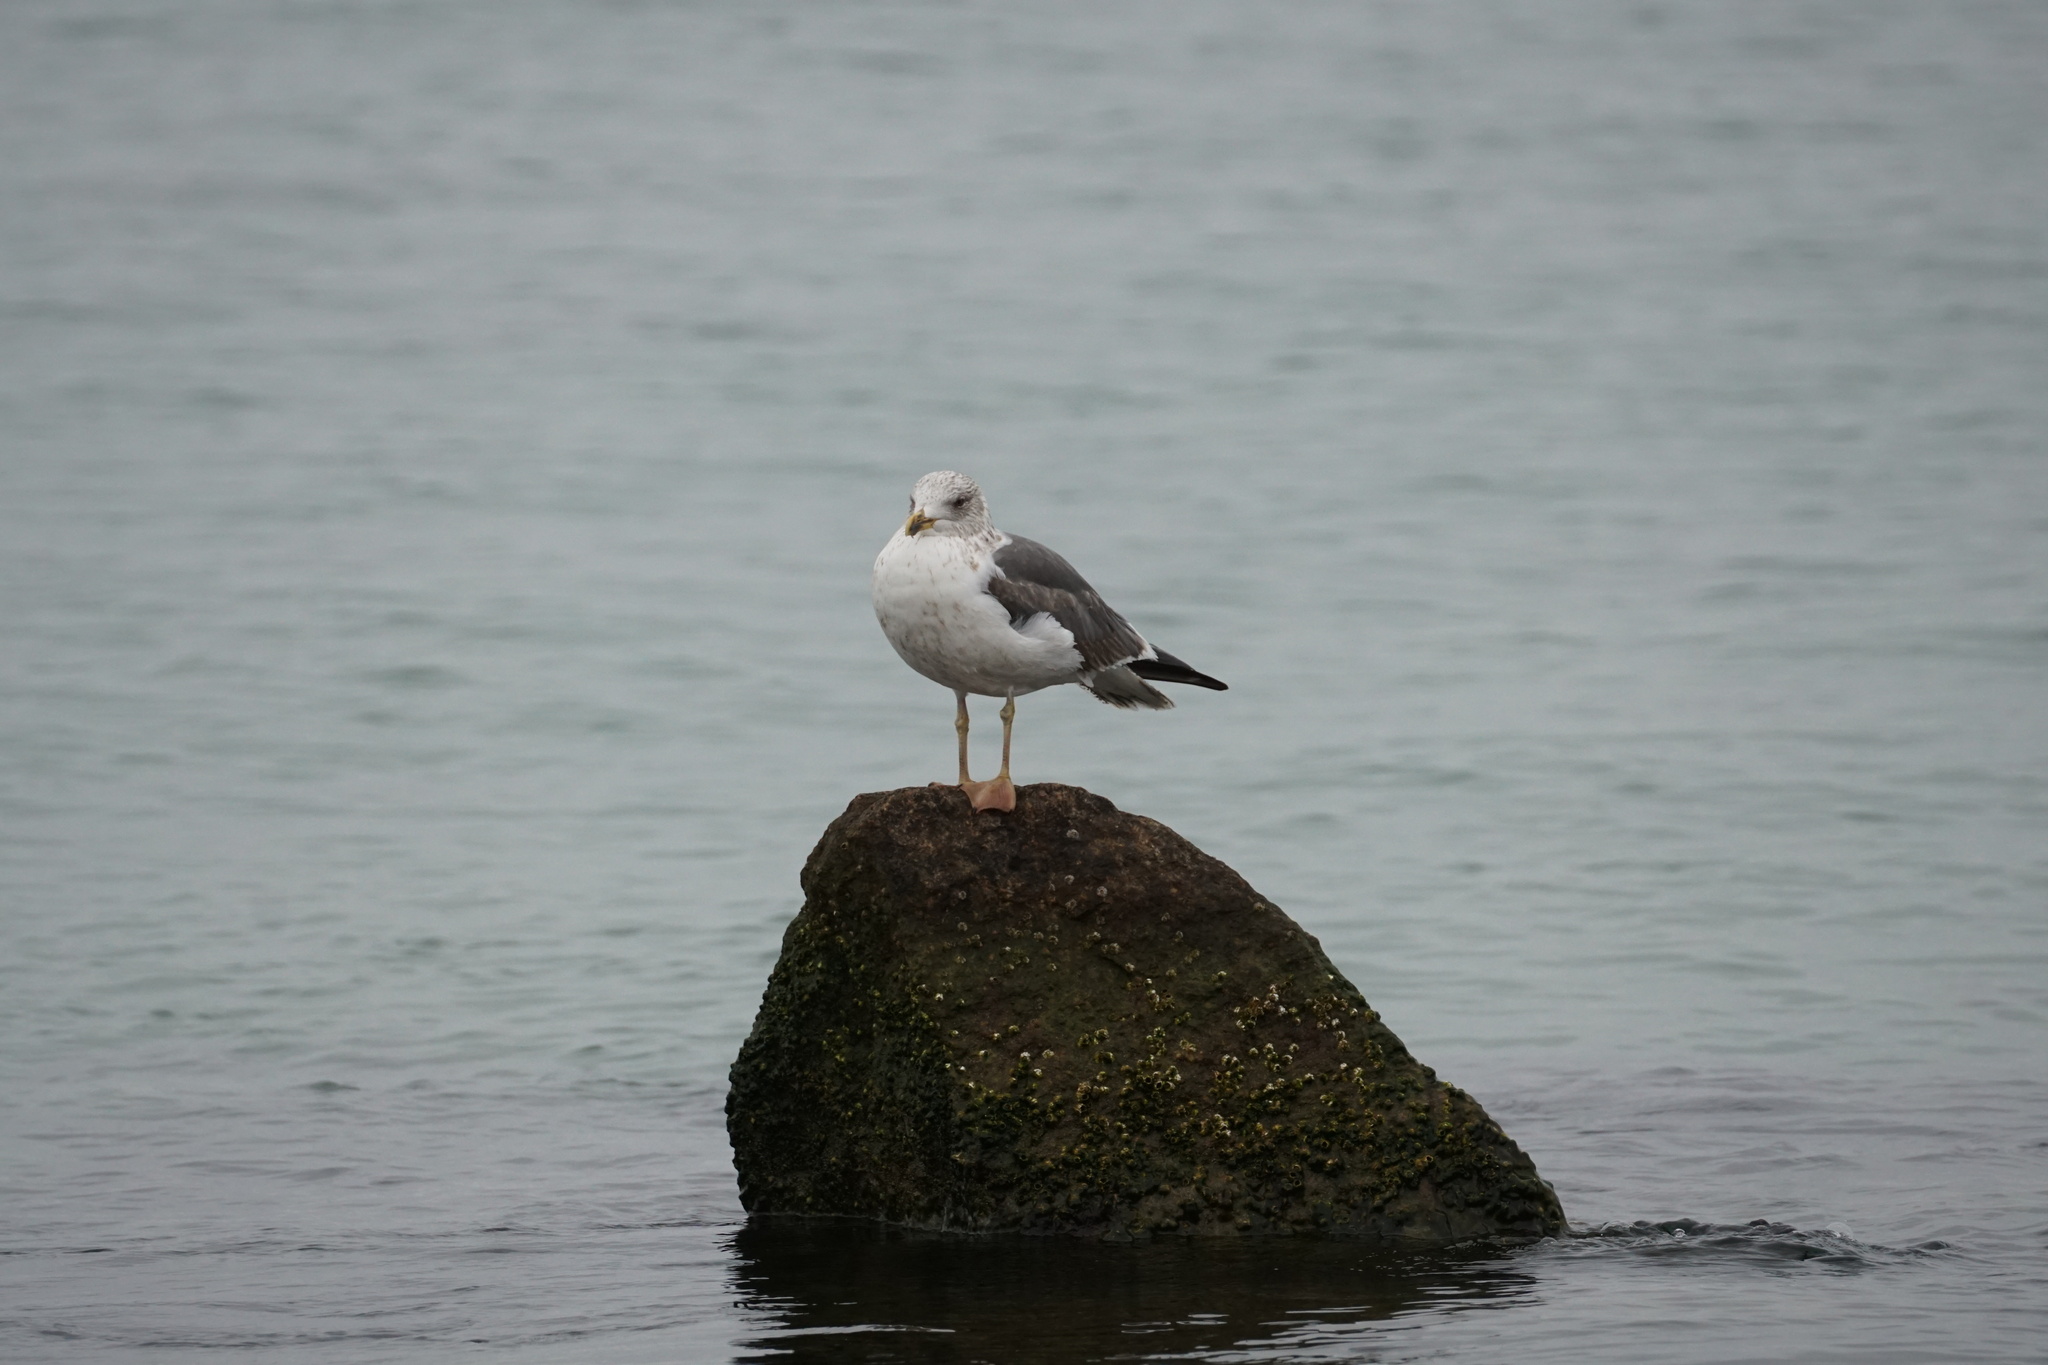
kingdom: Animalia
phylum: Chordata
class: Aves
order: Charadriiformes
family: Laridae
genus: Larus
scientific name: Larus fuscus
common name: Lesser black-backed gull
